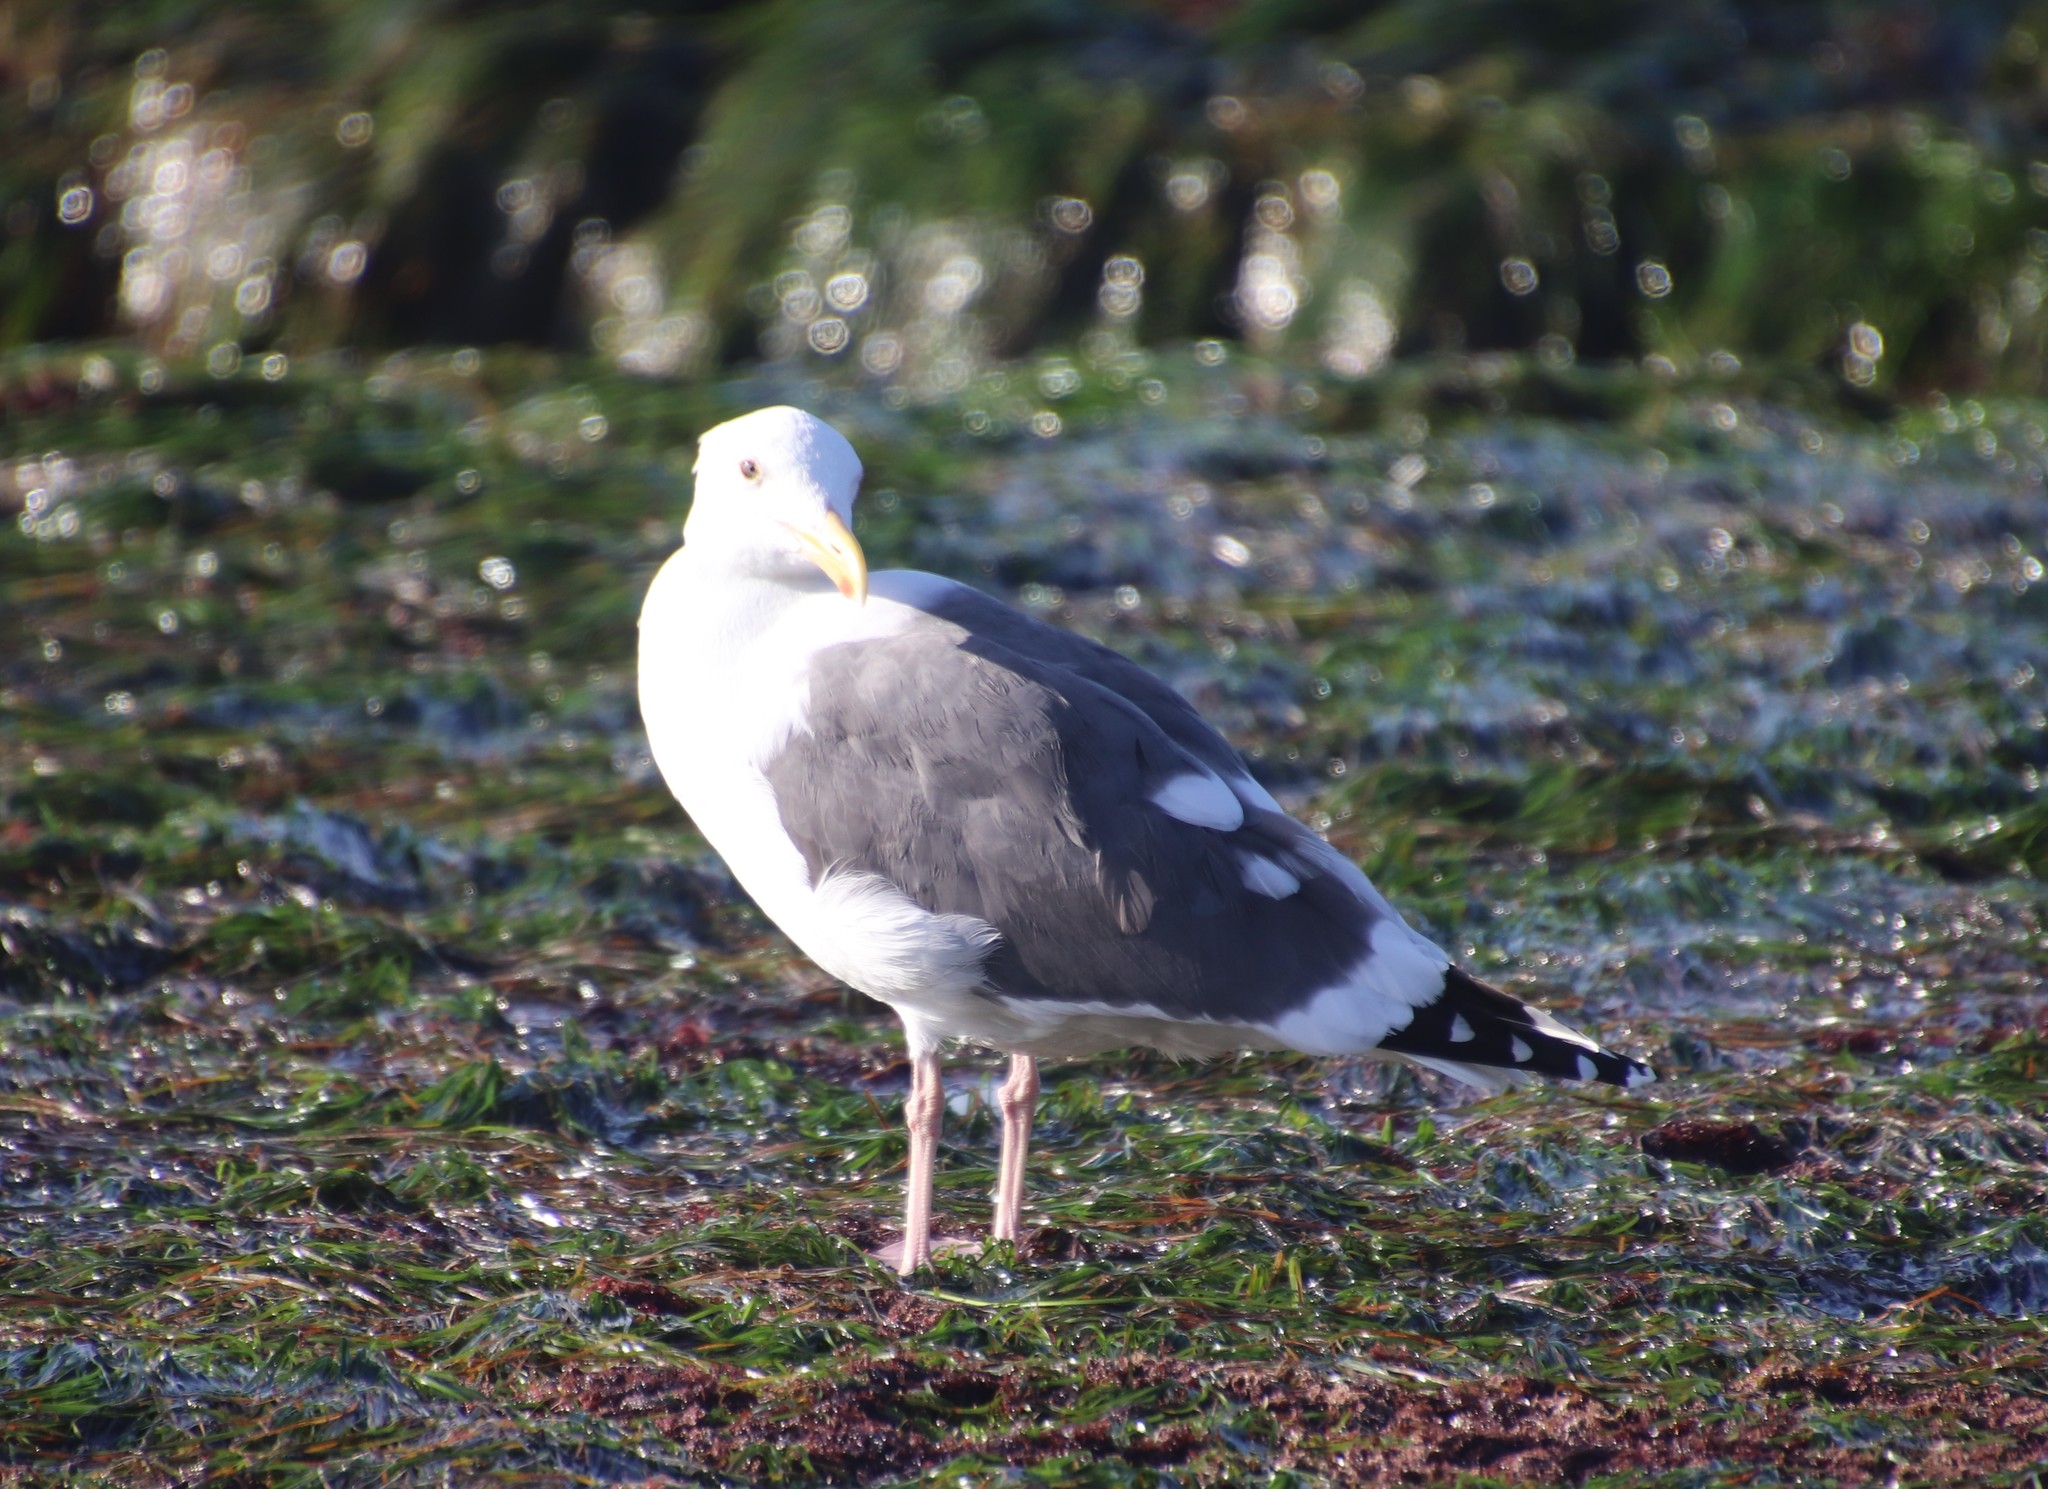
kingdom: Animalia
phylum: Chordata
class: Aves
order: Charadriiformes
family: Laridae
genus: Larus
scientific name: Larus occidentalis
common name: Western gull
